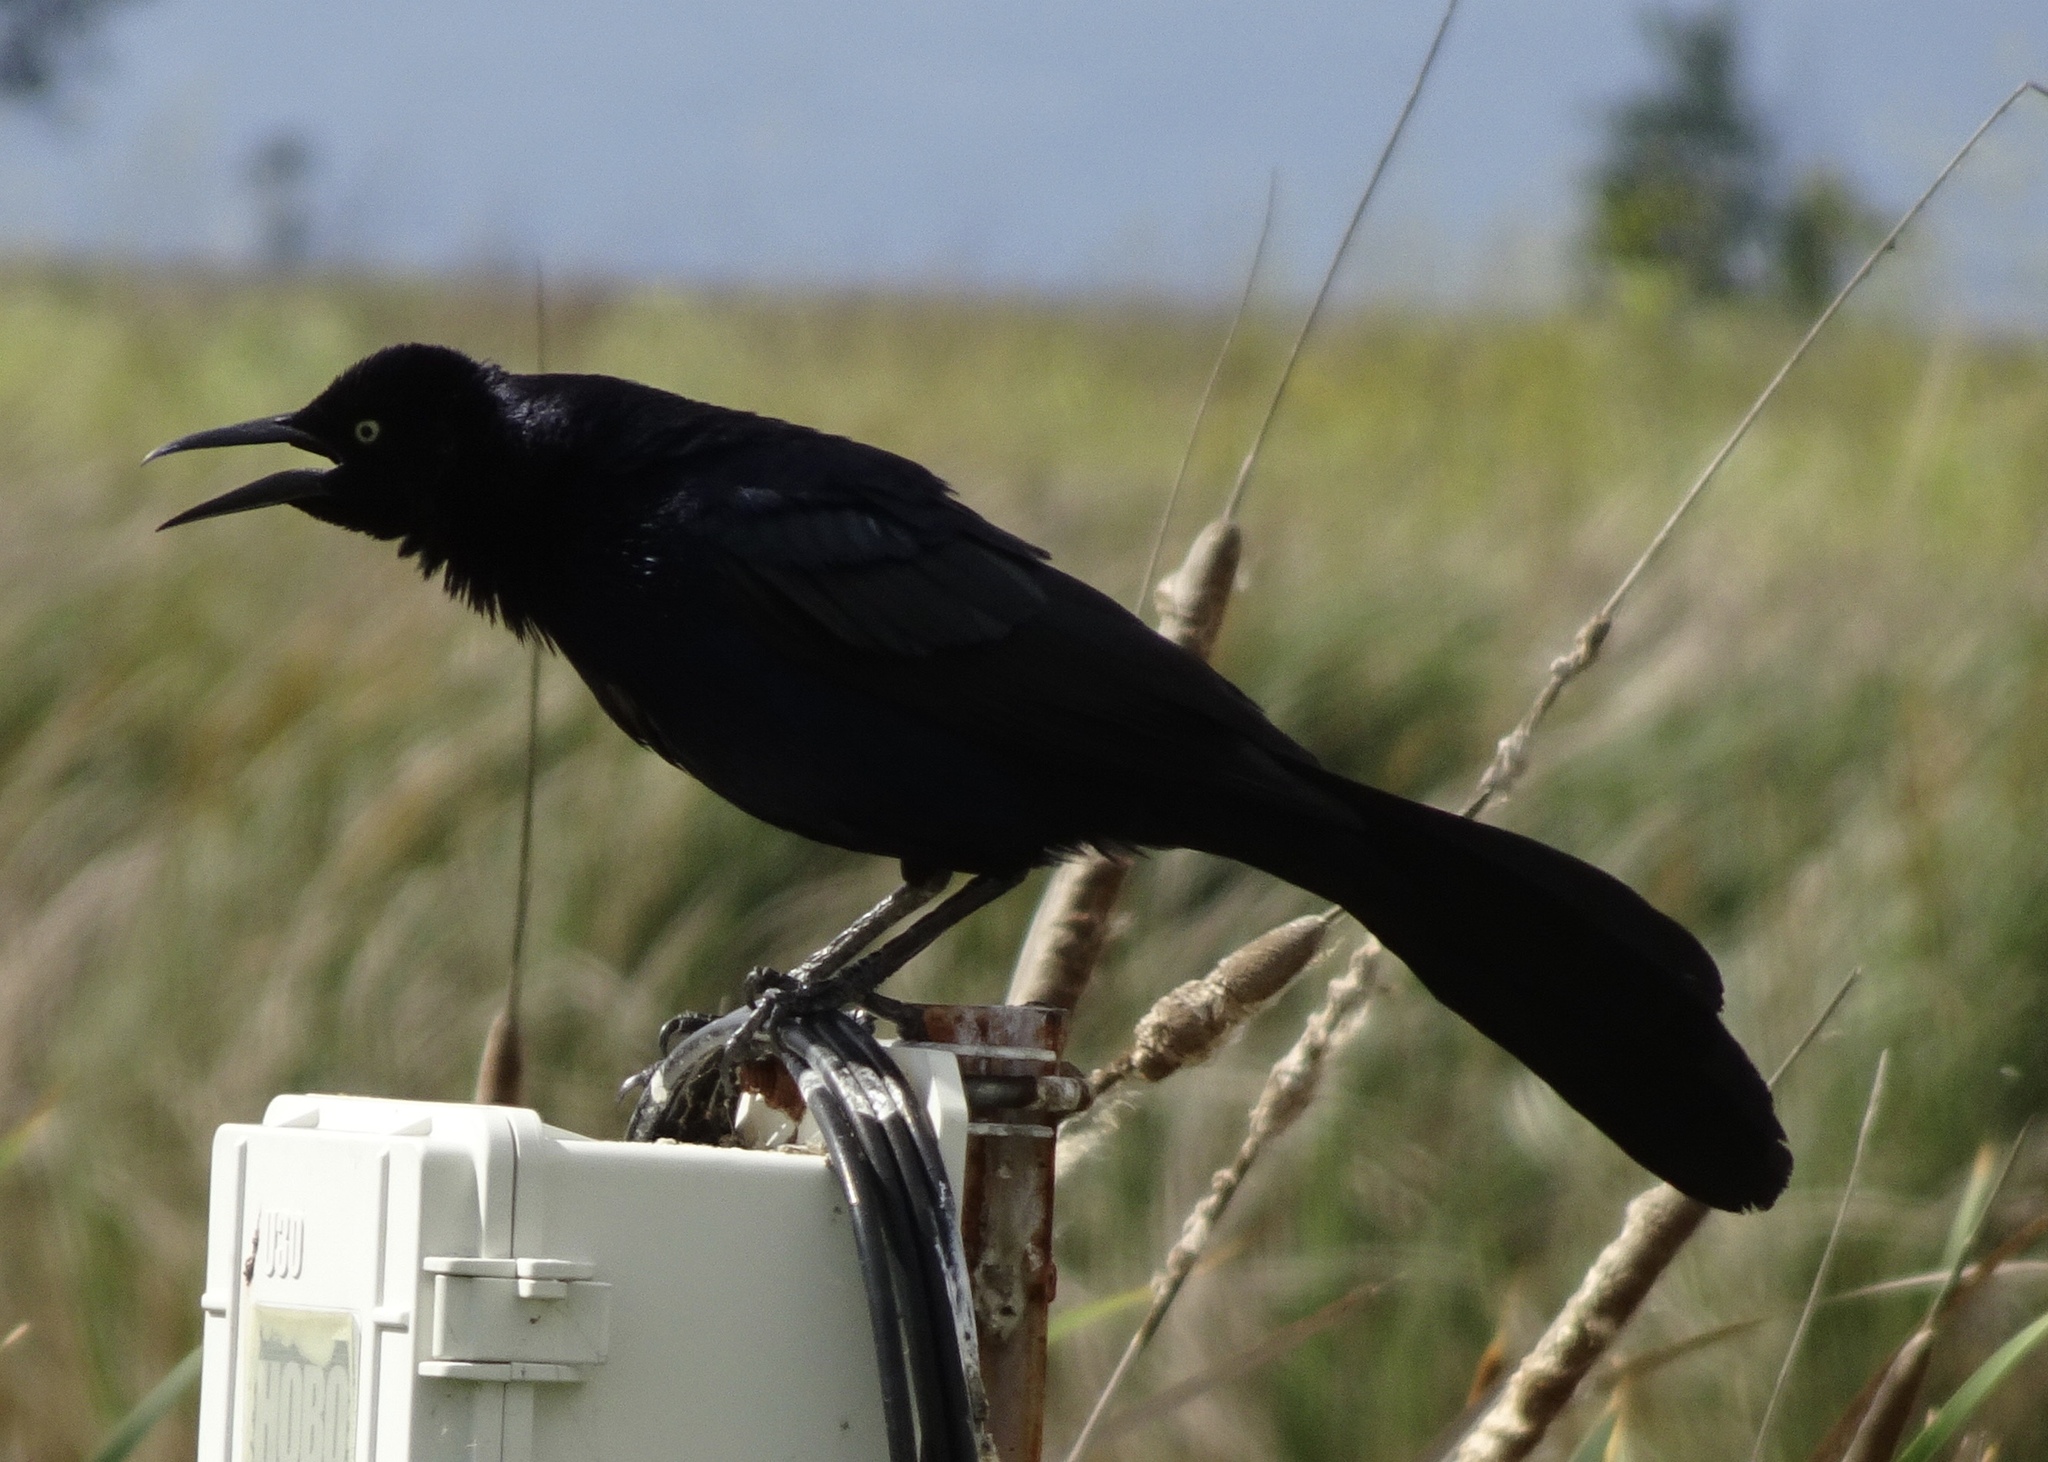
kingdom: Animalia
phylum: Chordata
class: Aves
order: Passeriformes
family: Icteridae
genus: Quiscalus
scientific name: Quiscalus mexicanus
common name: Great-tailed grackle
